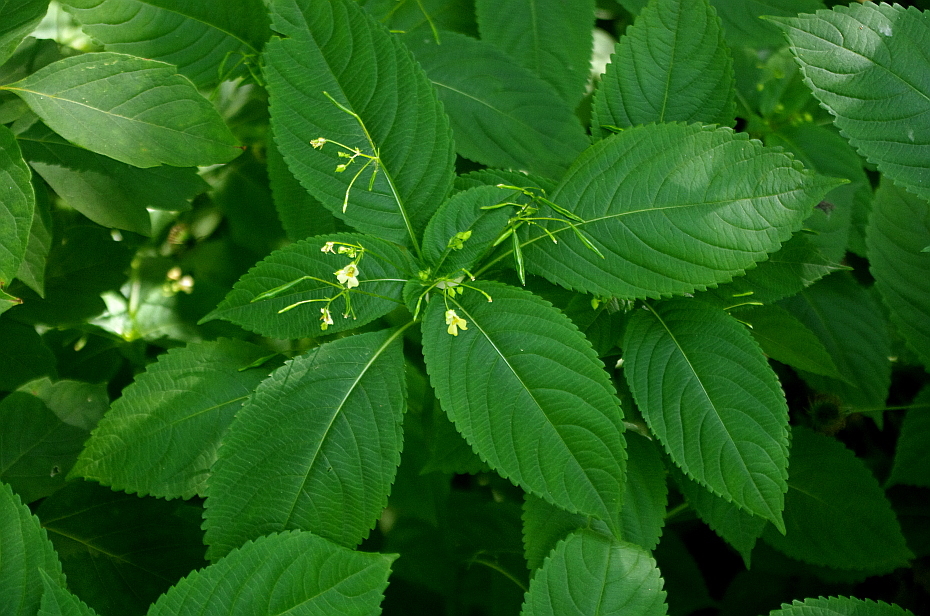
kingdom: Plantae
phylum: Tracheophyta
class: Magnoliopsida
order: Ericales
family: Balsaminaceae
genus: Impatiens
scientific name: Impatiens parviflora
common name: Small balsam
